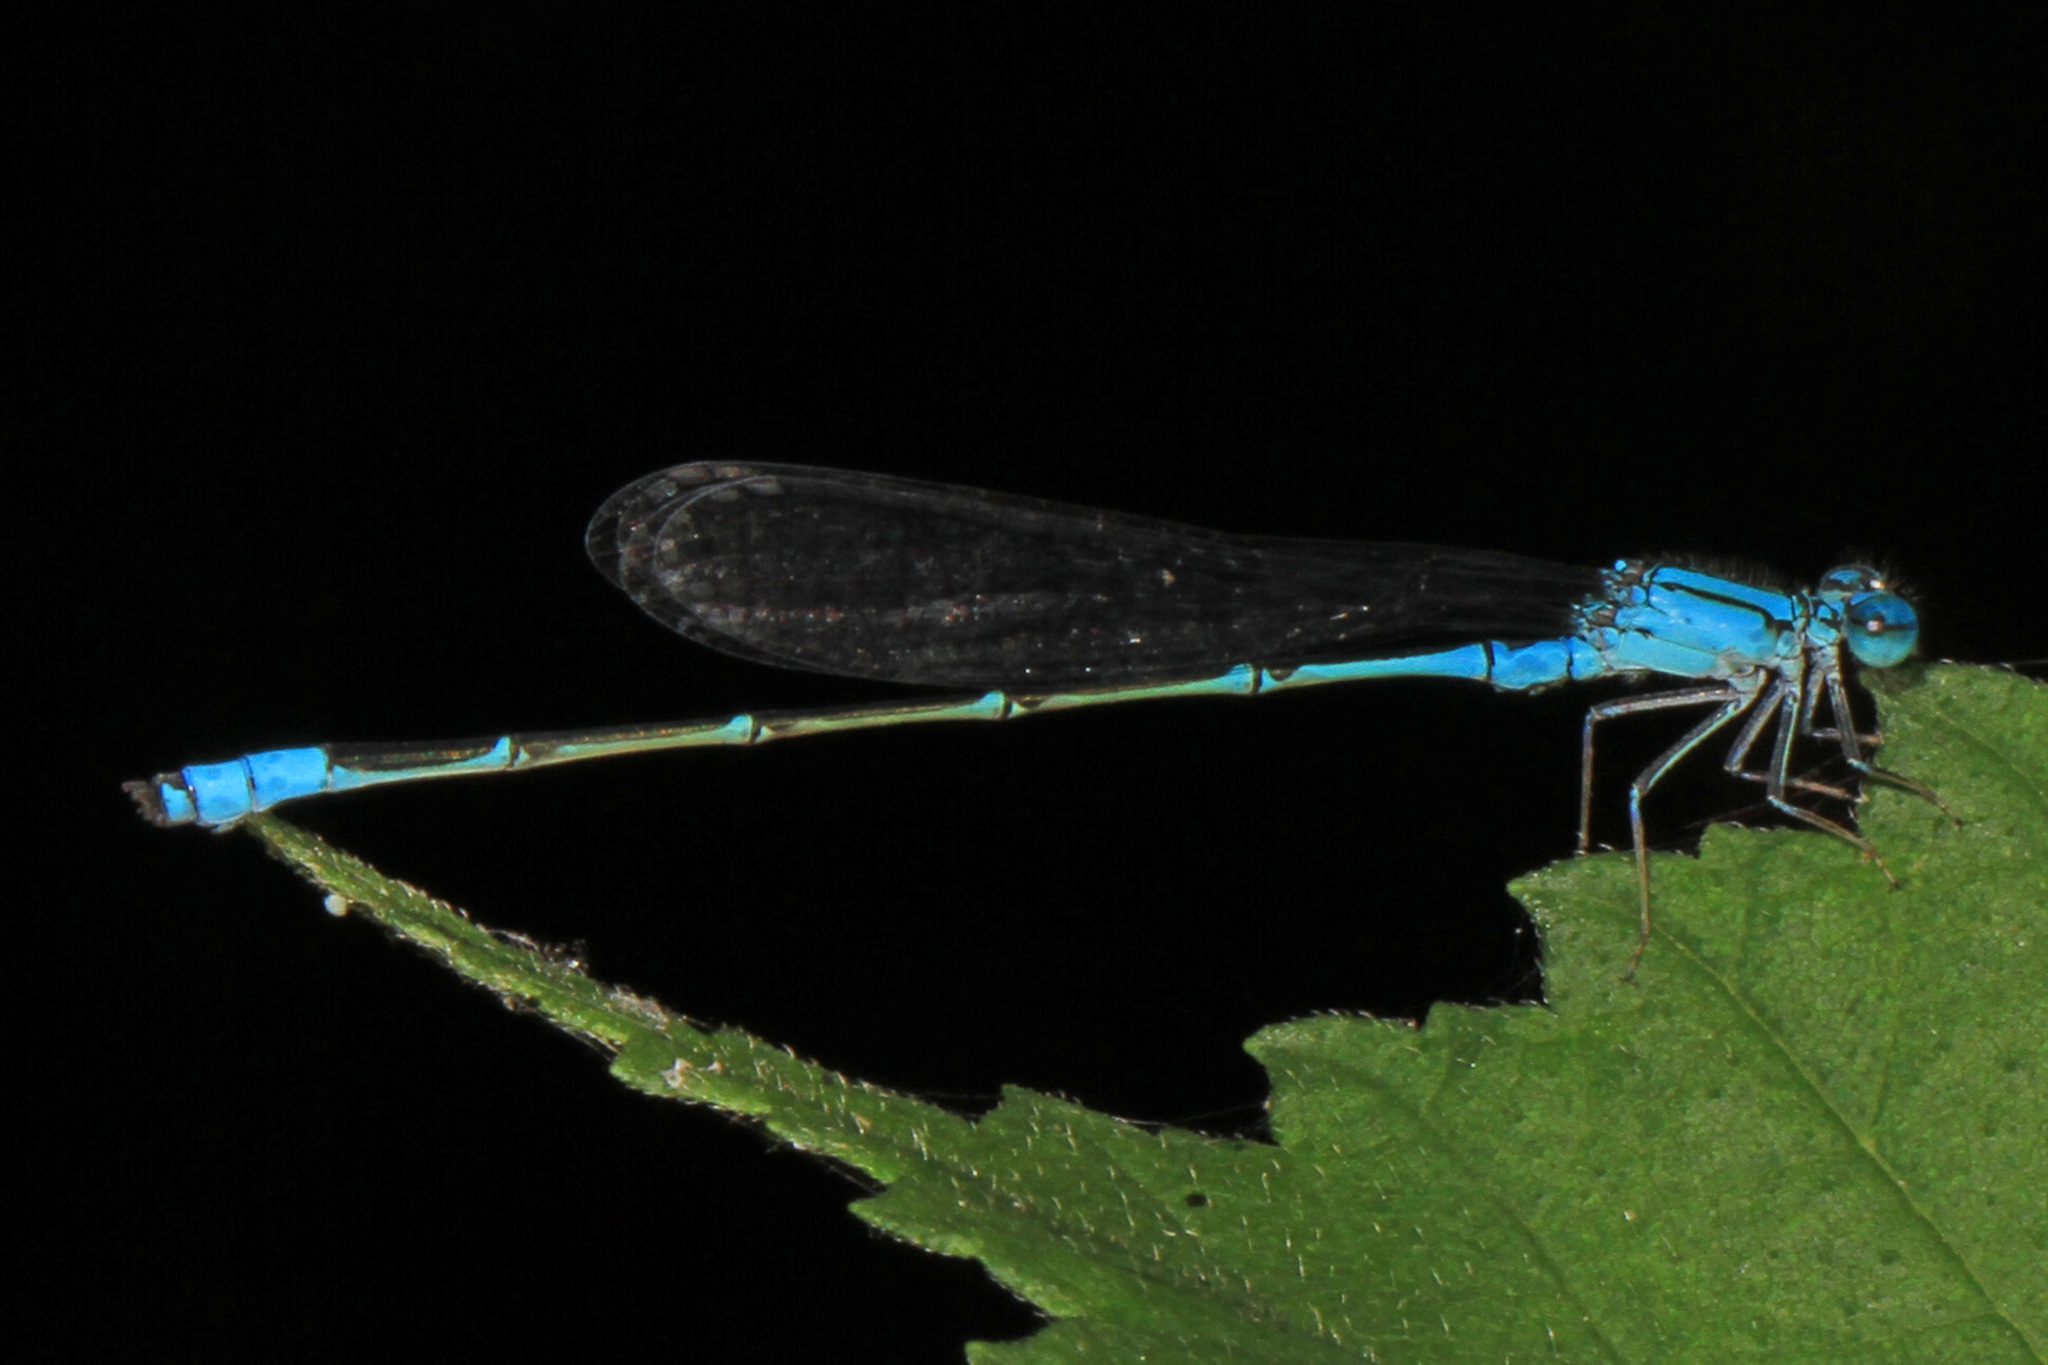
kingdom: Animalia
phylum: Arthropoda
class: Insecta
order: Odonata
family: Coenagrionidae
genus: Enallagma
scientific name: Enallagma traviatum
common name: Slender bluet
